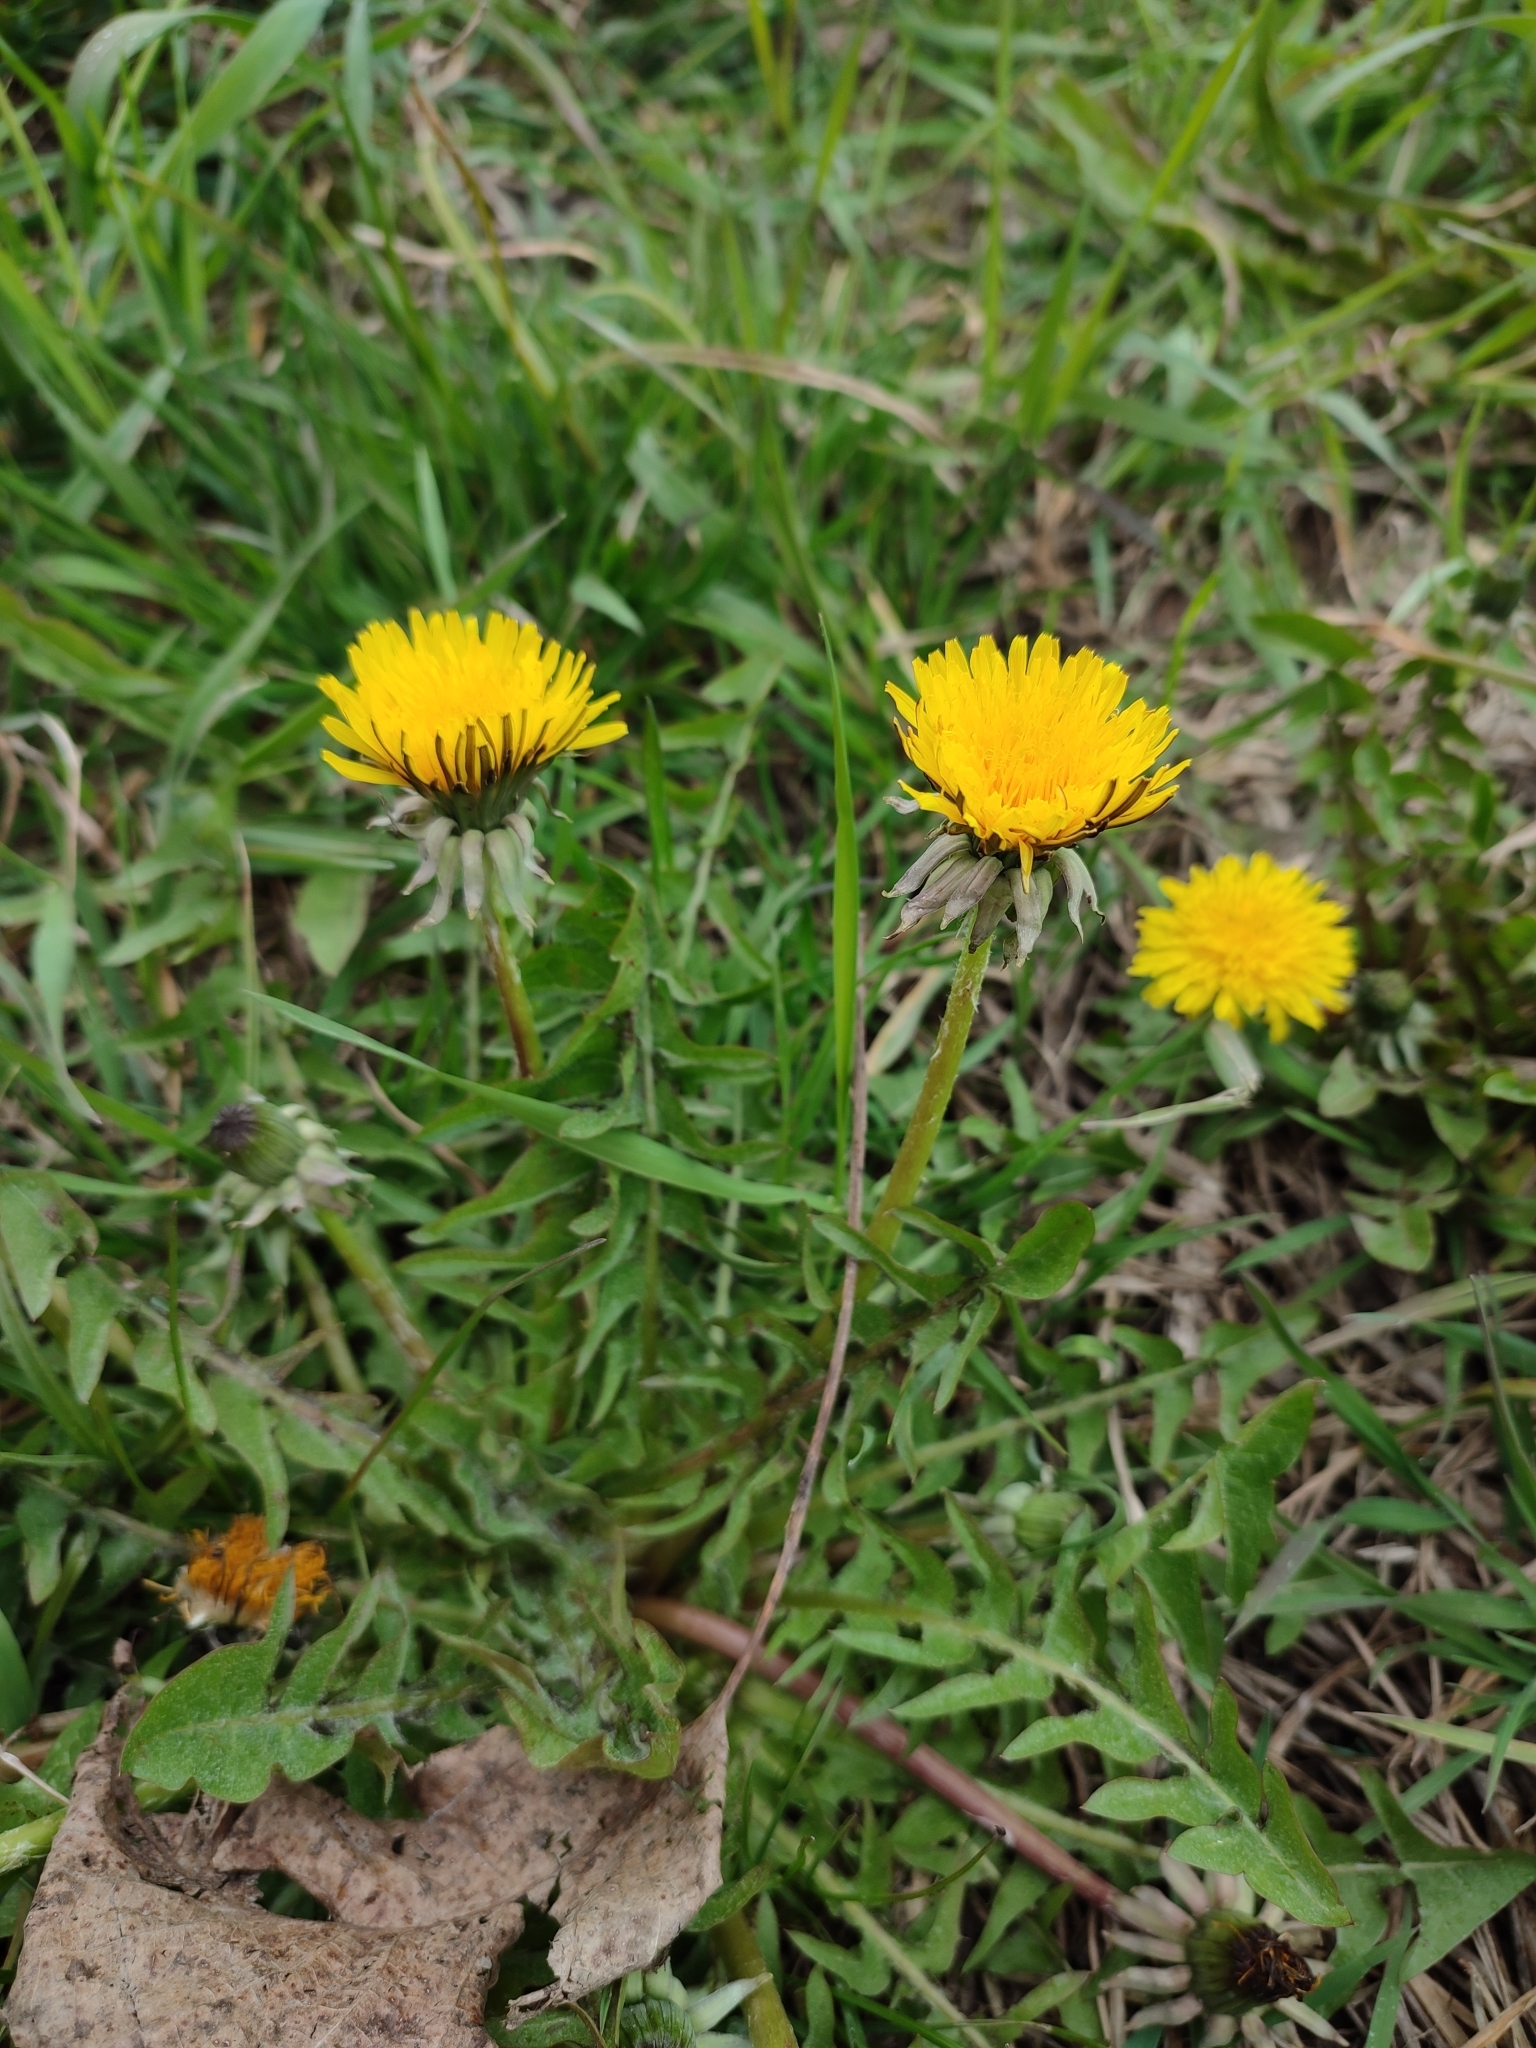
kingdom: Plantae
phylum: Tracheophyta
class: Magnoliopsida
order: Asterales
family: Asteraceae
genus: Taraxacum
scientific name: Taraxacum officinale
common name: Common dandelion
